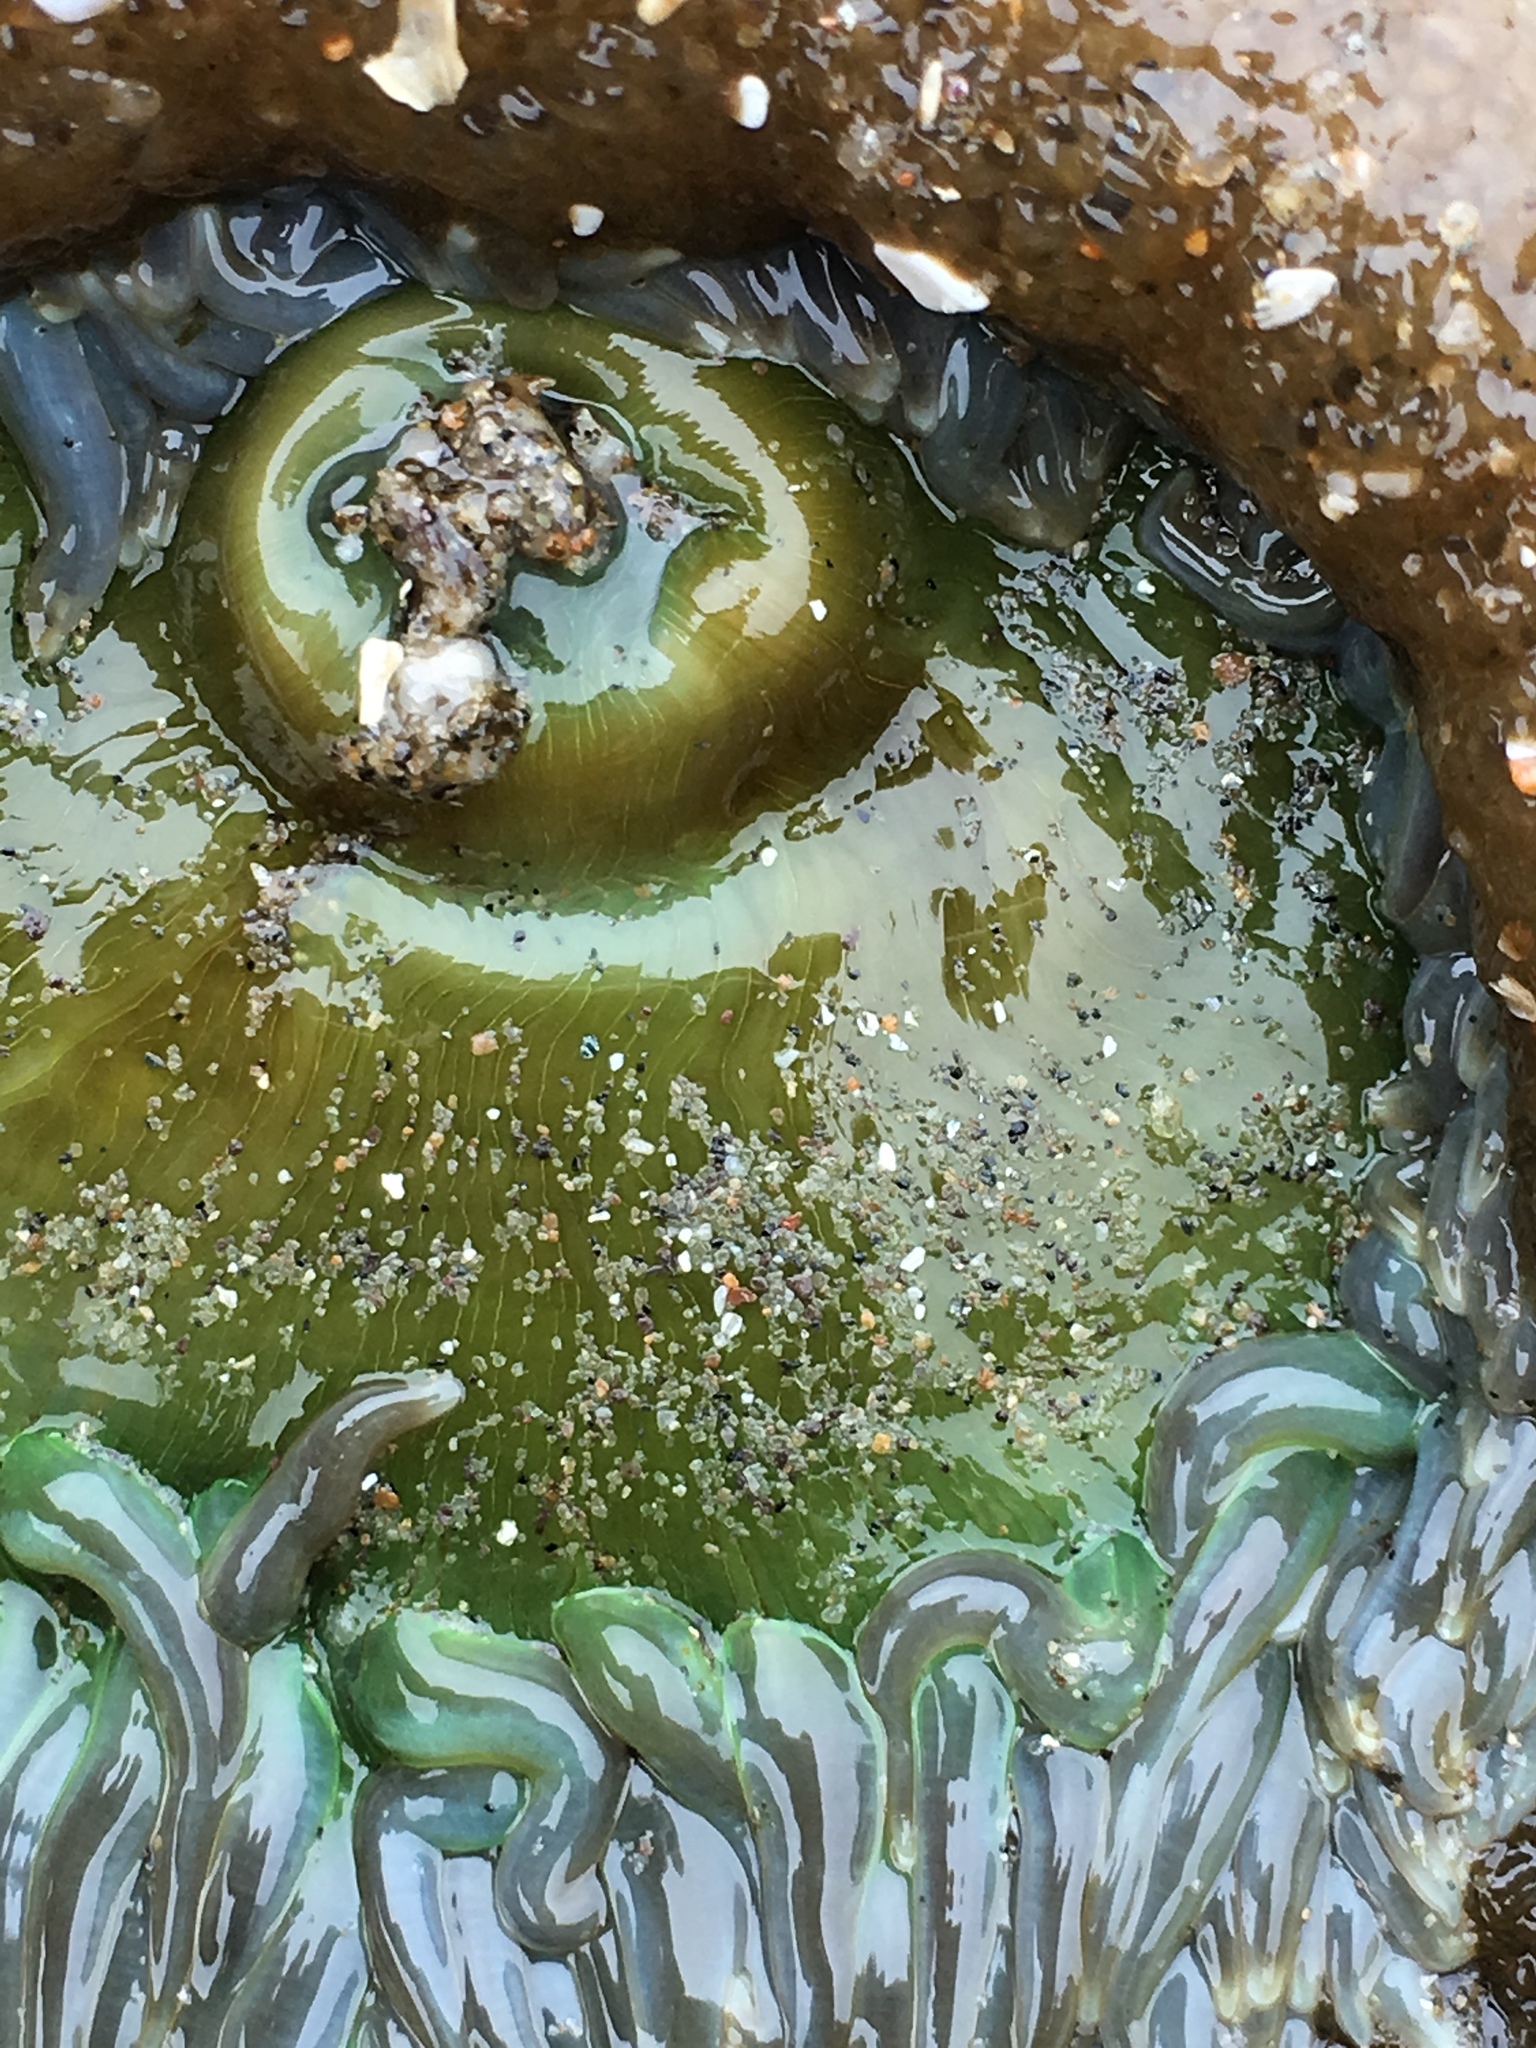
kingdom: Animalia
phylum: Cnidaria
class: Anthozoa
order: Actiniaria
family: Actiniidae
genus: Anthopleura
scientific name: Anthopleura xanthogrammica
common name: Giant green anemone
